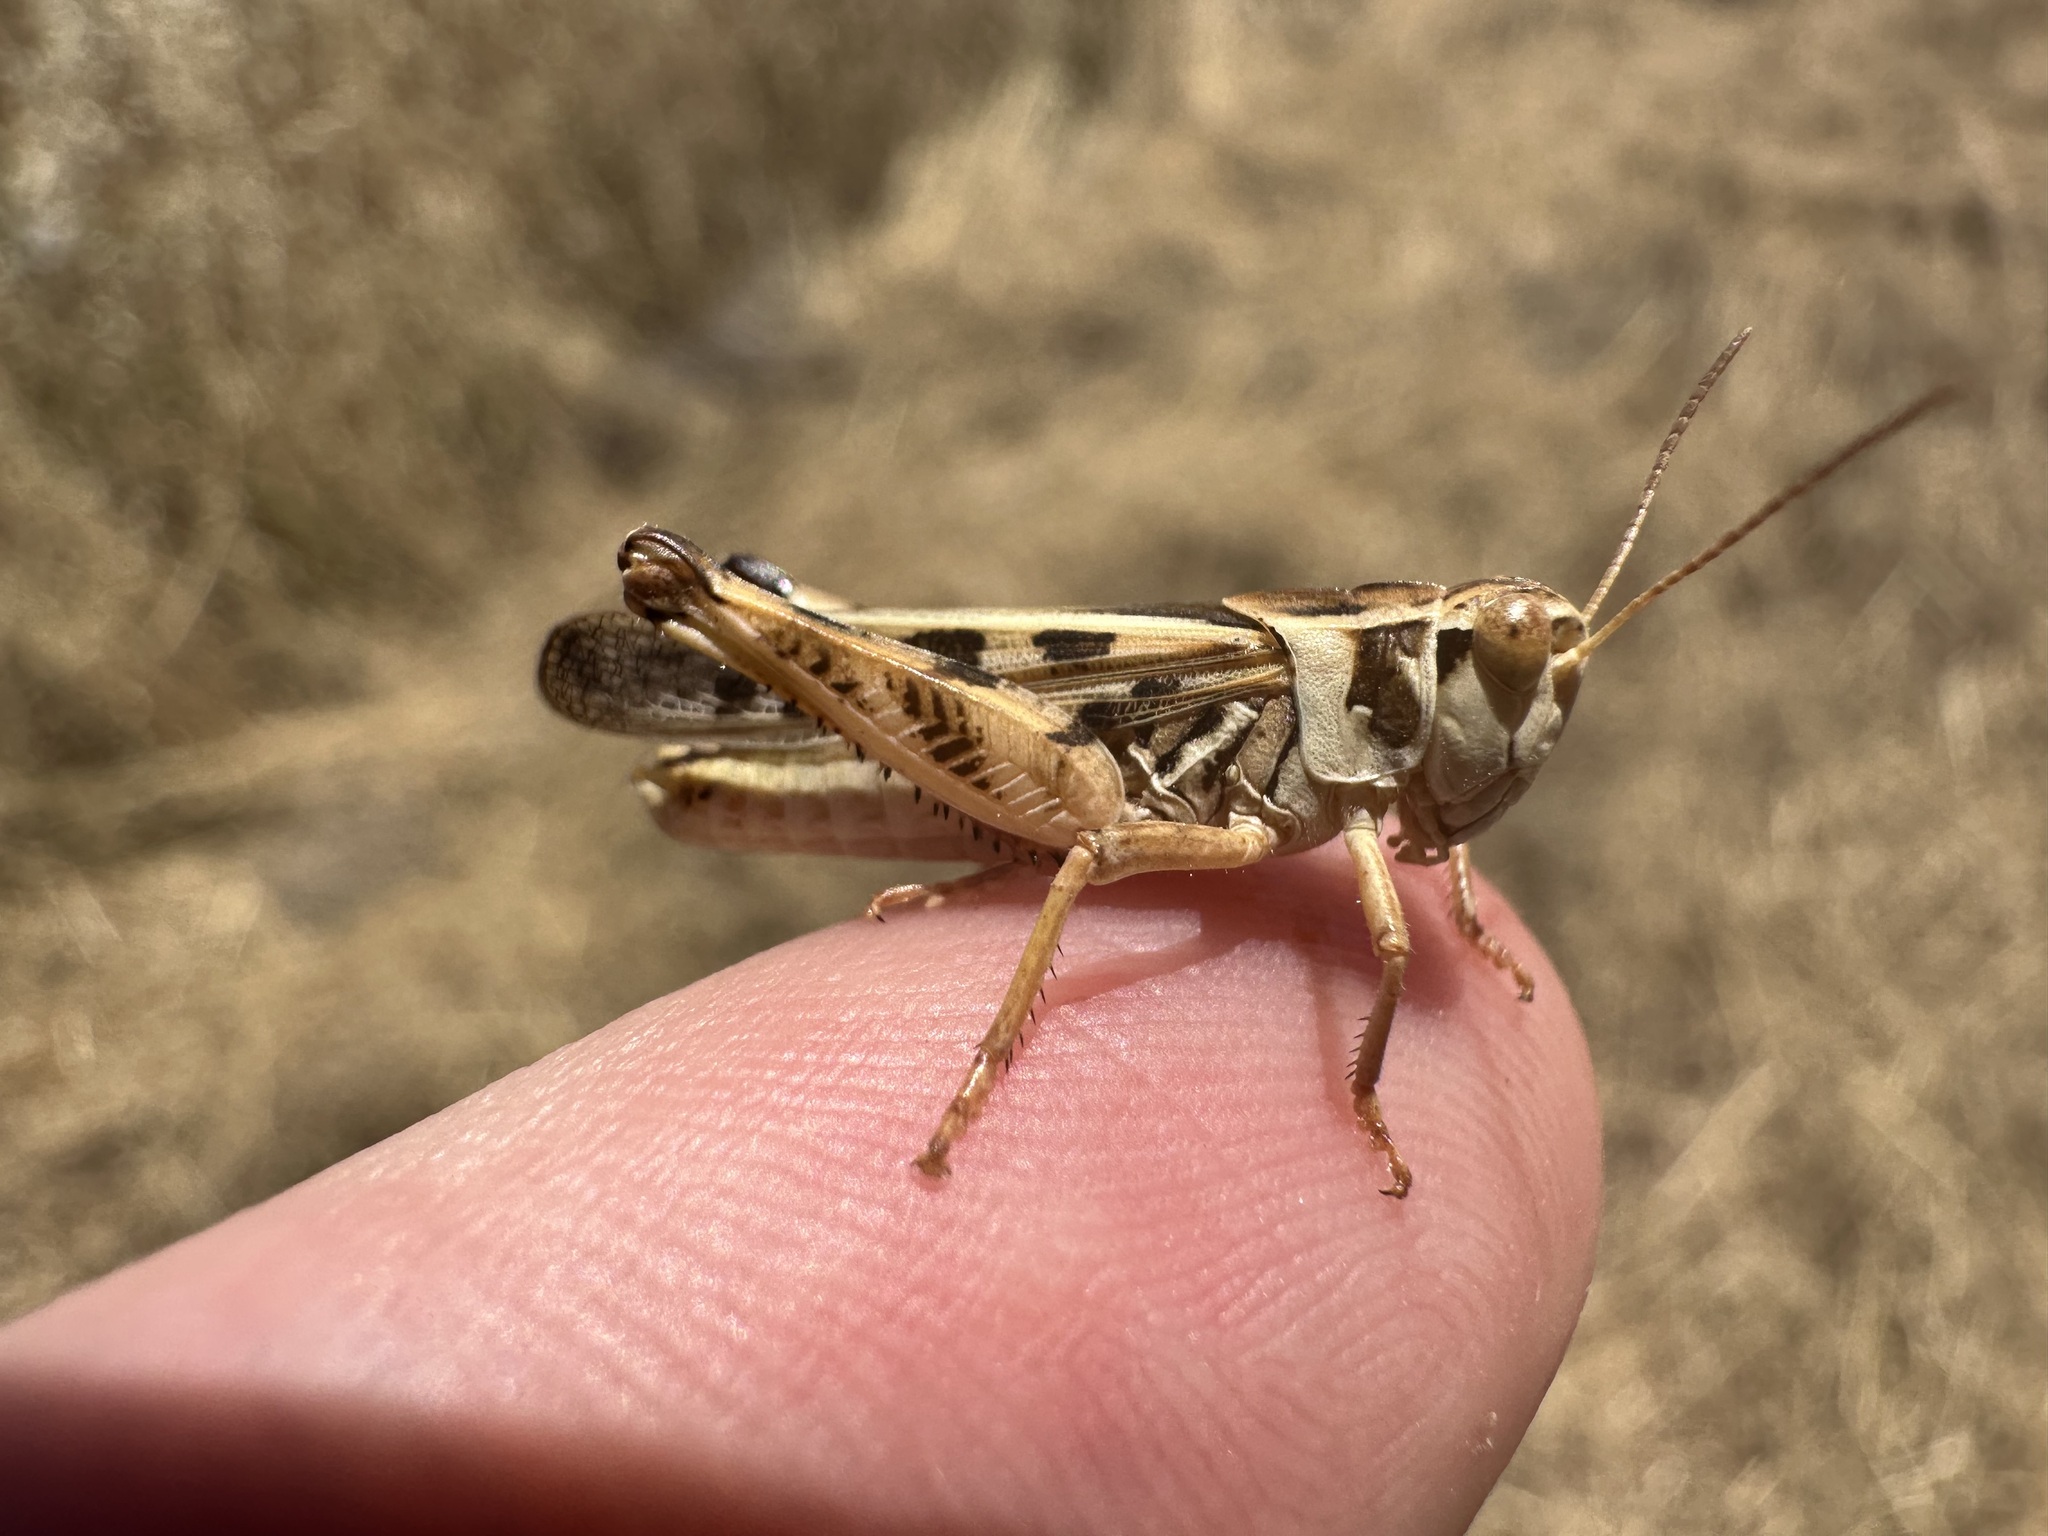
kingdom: Animalia
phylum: Arthropoda
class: Insecta
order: Orthoptera
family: Acrididae
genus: Camnula
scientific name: Camnula pellucida
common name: Clear-winged grasshopper
